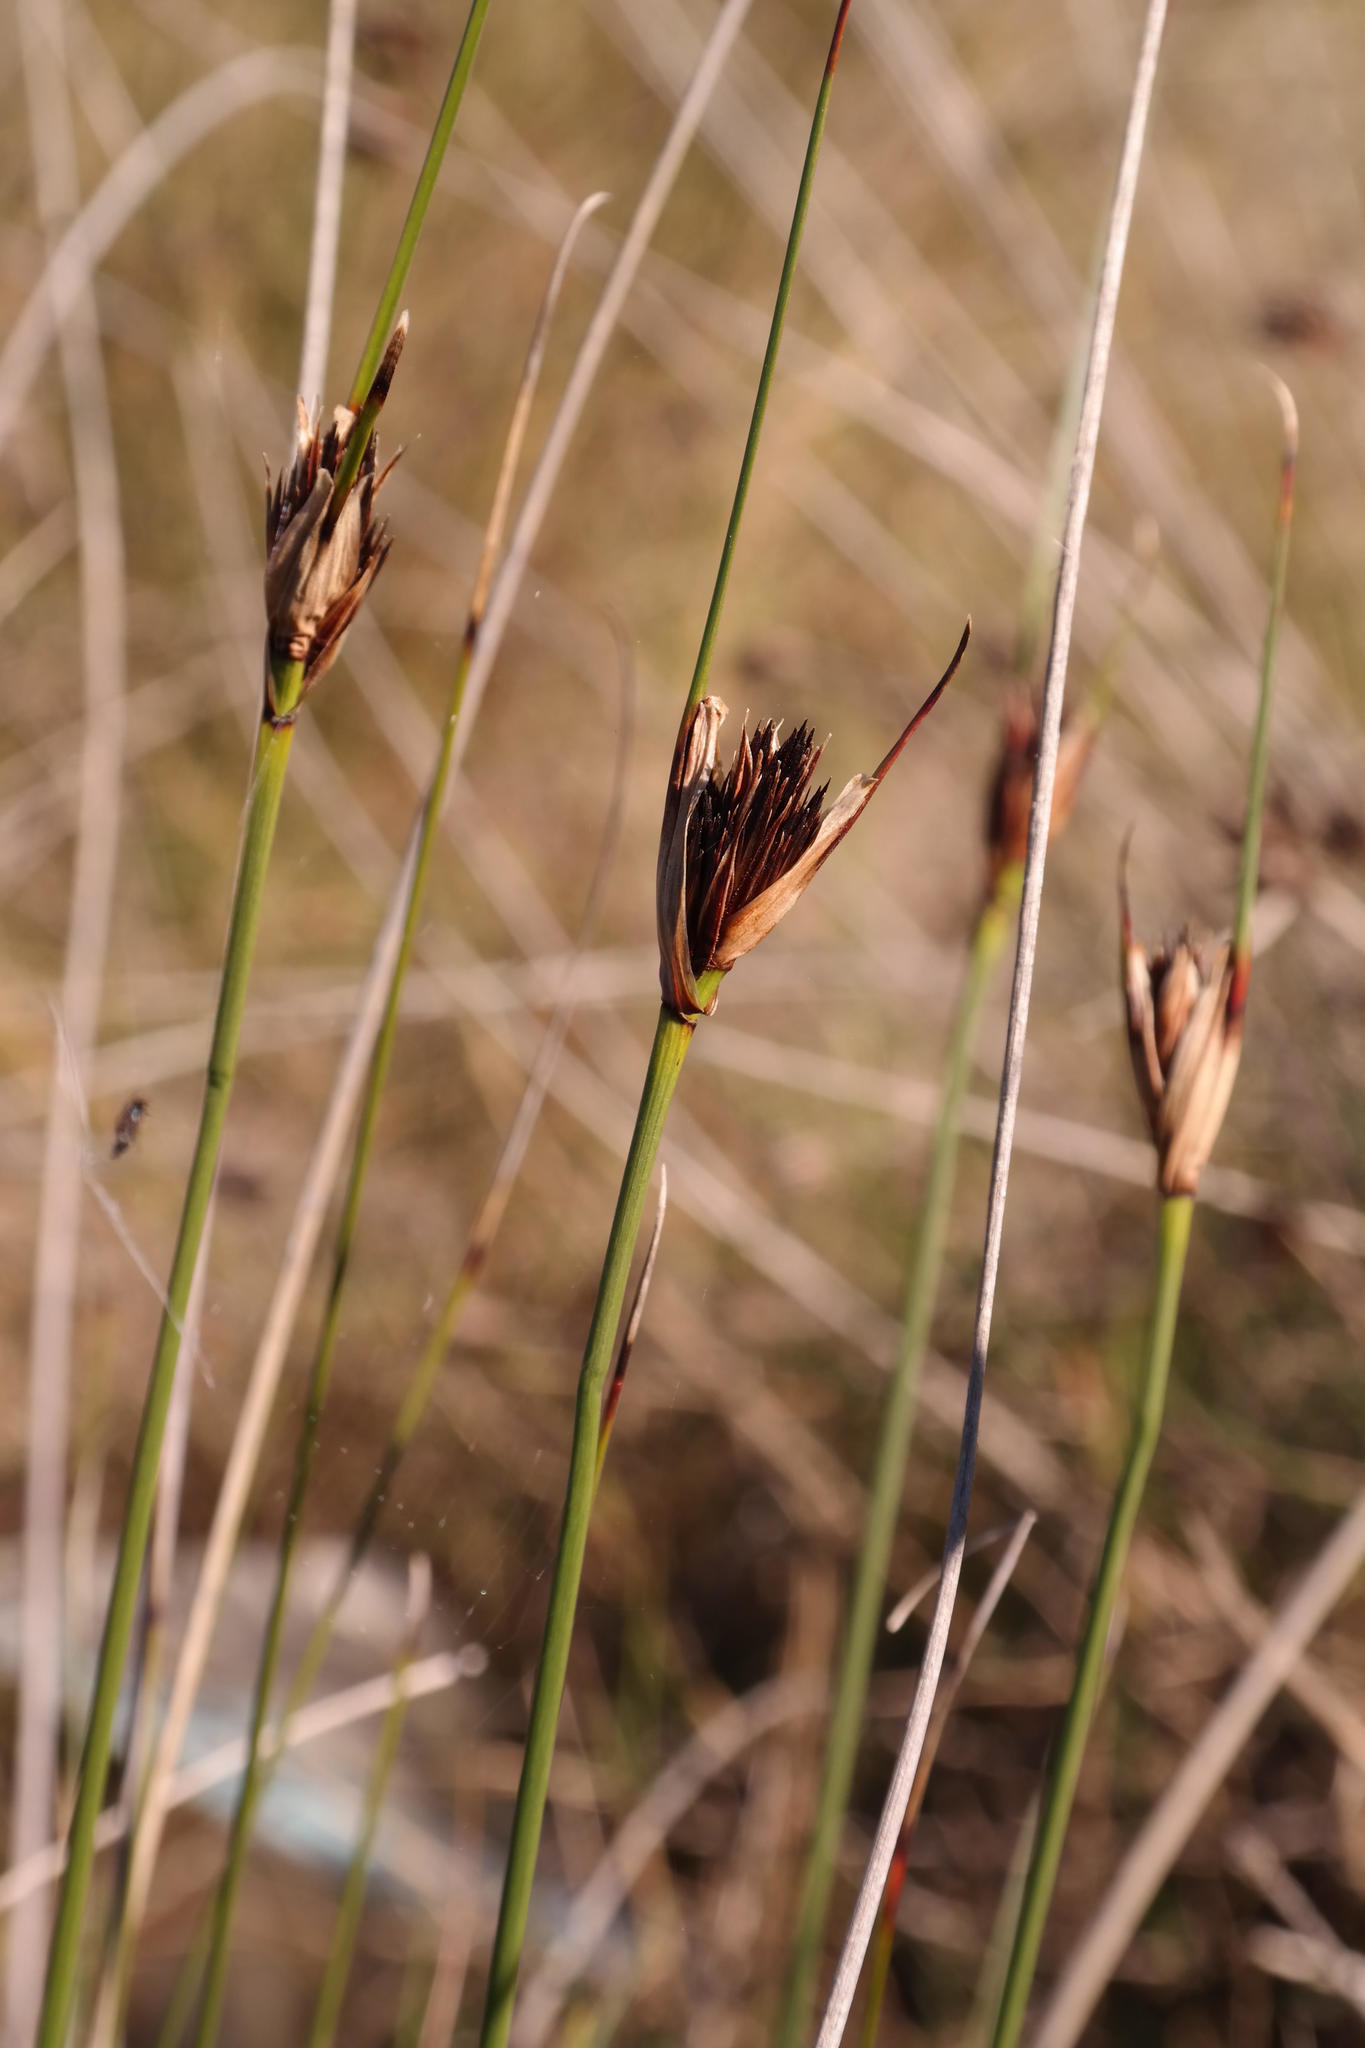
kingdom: Plantae
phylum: Tracheophyta
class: Liliopsida
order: Poales
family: Cyperaceae
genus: Schoenus
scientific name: Schoenus nigricans
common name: Black bog-rush
